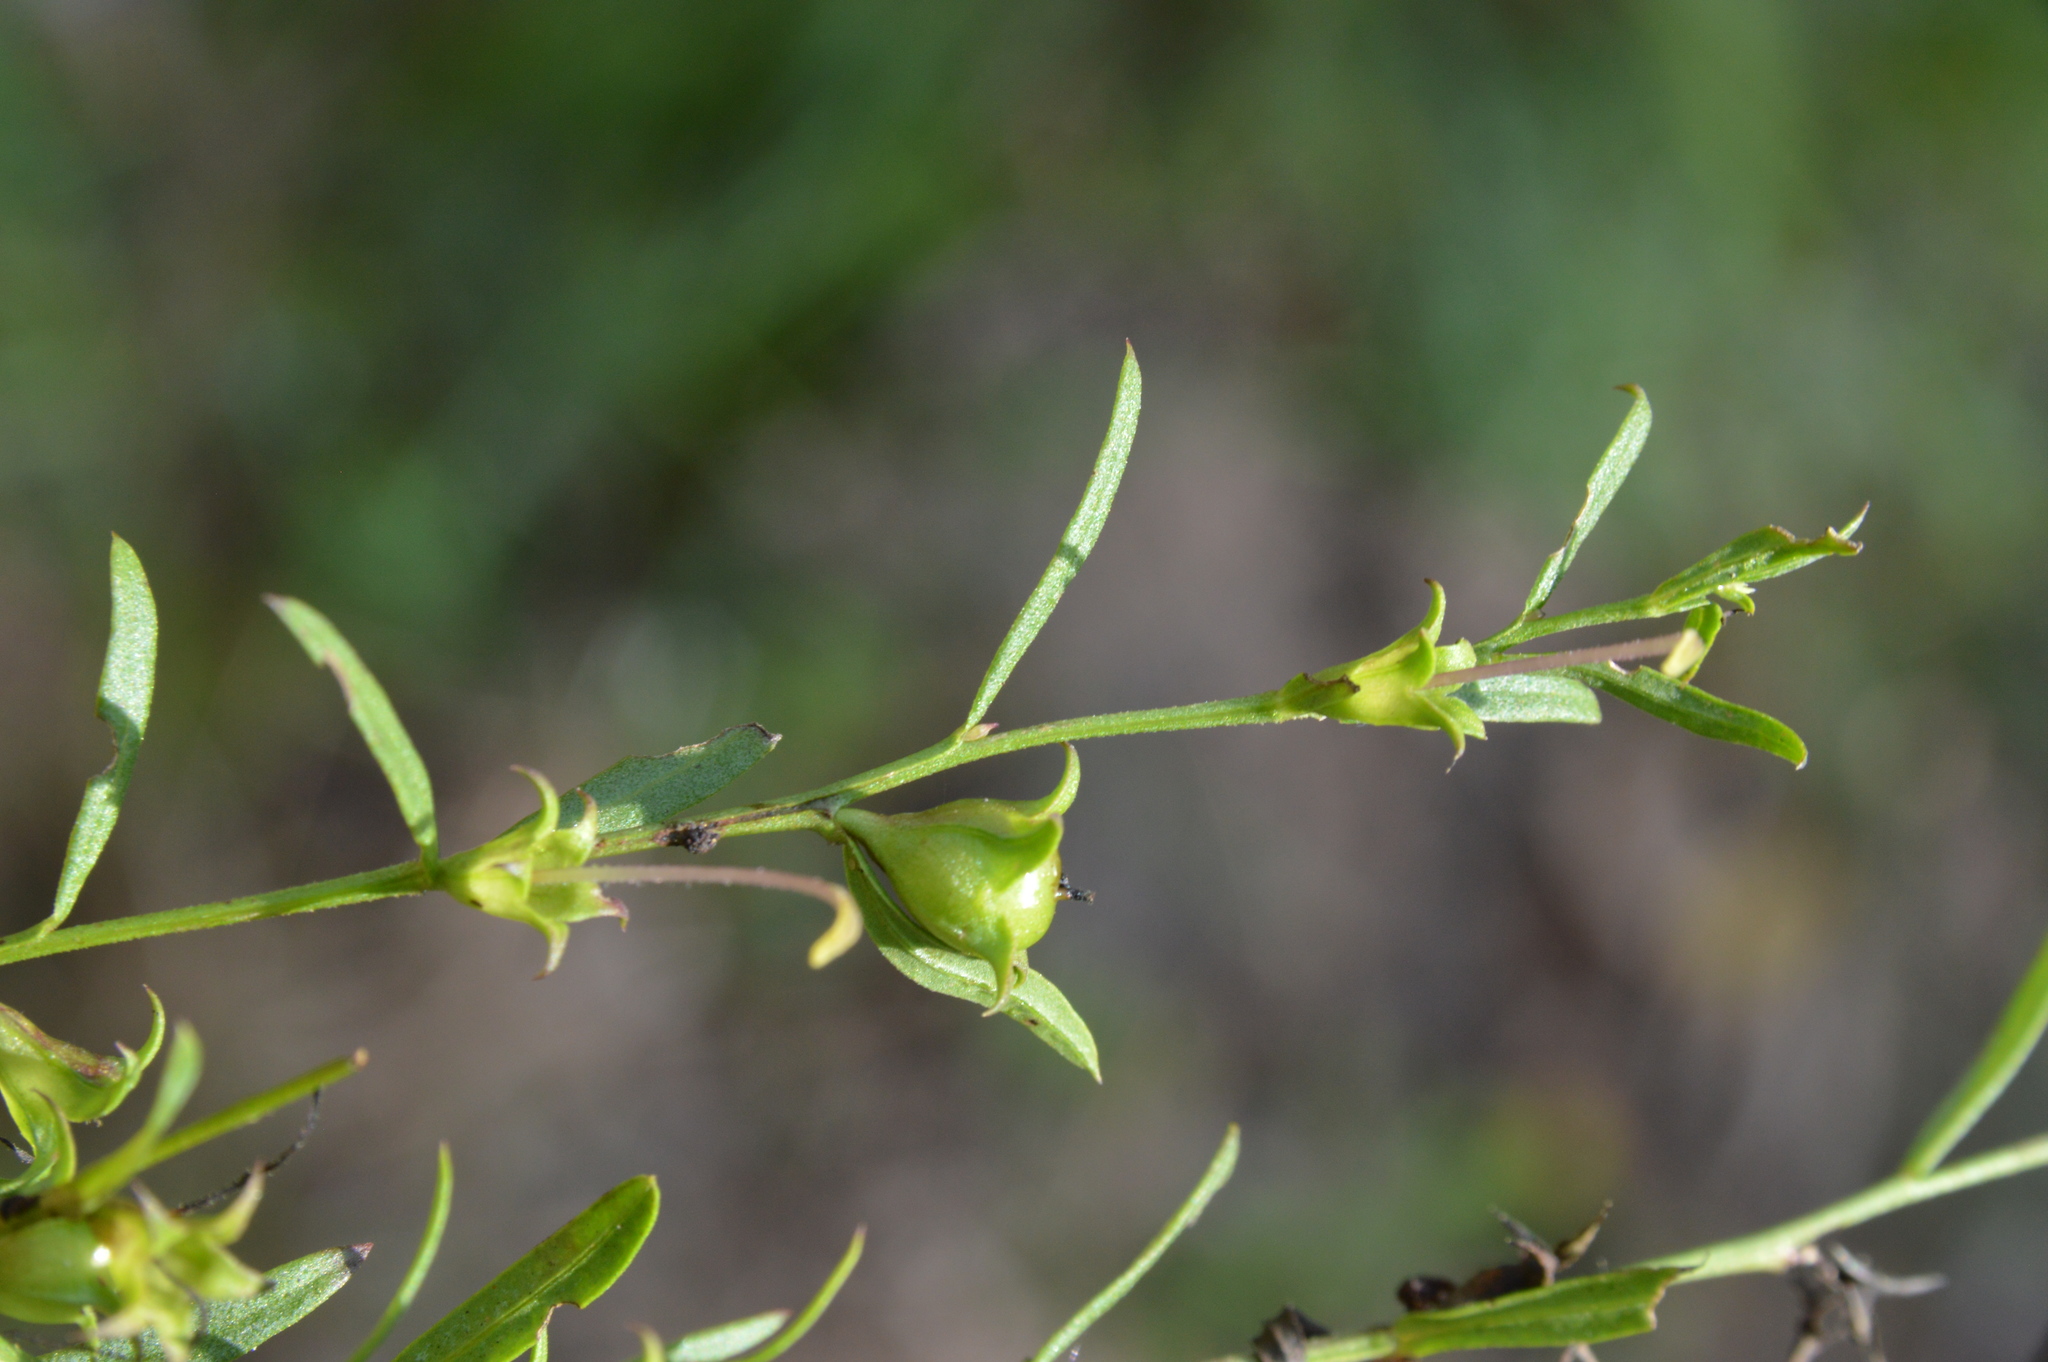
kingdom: Plantae
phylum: Tracheophyta
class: Magnoliopsida
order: Lamiales
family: Orobanchaceae
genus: Agalinis
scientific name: Agalinis heterophylla
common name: Prairie agalinis
